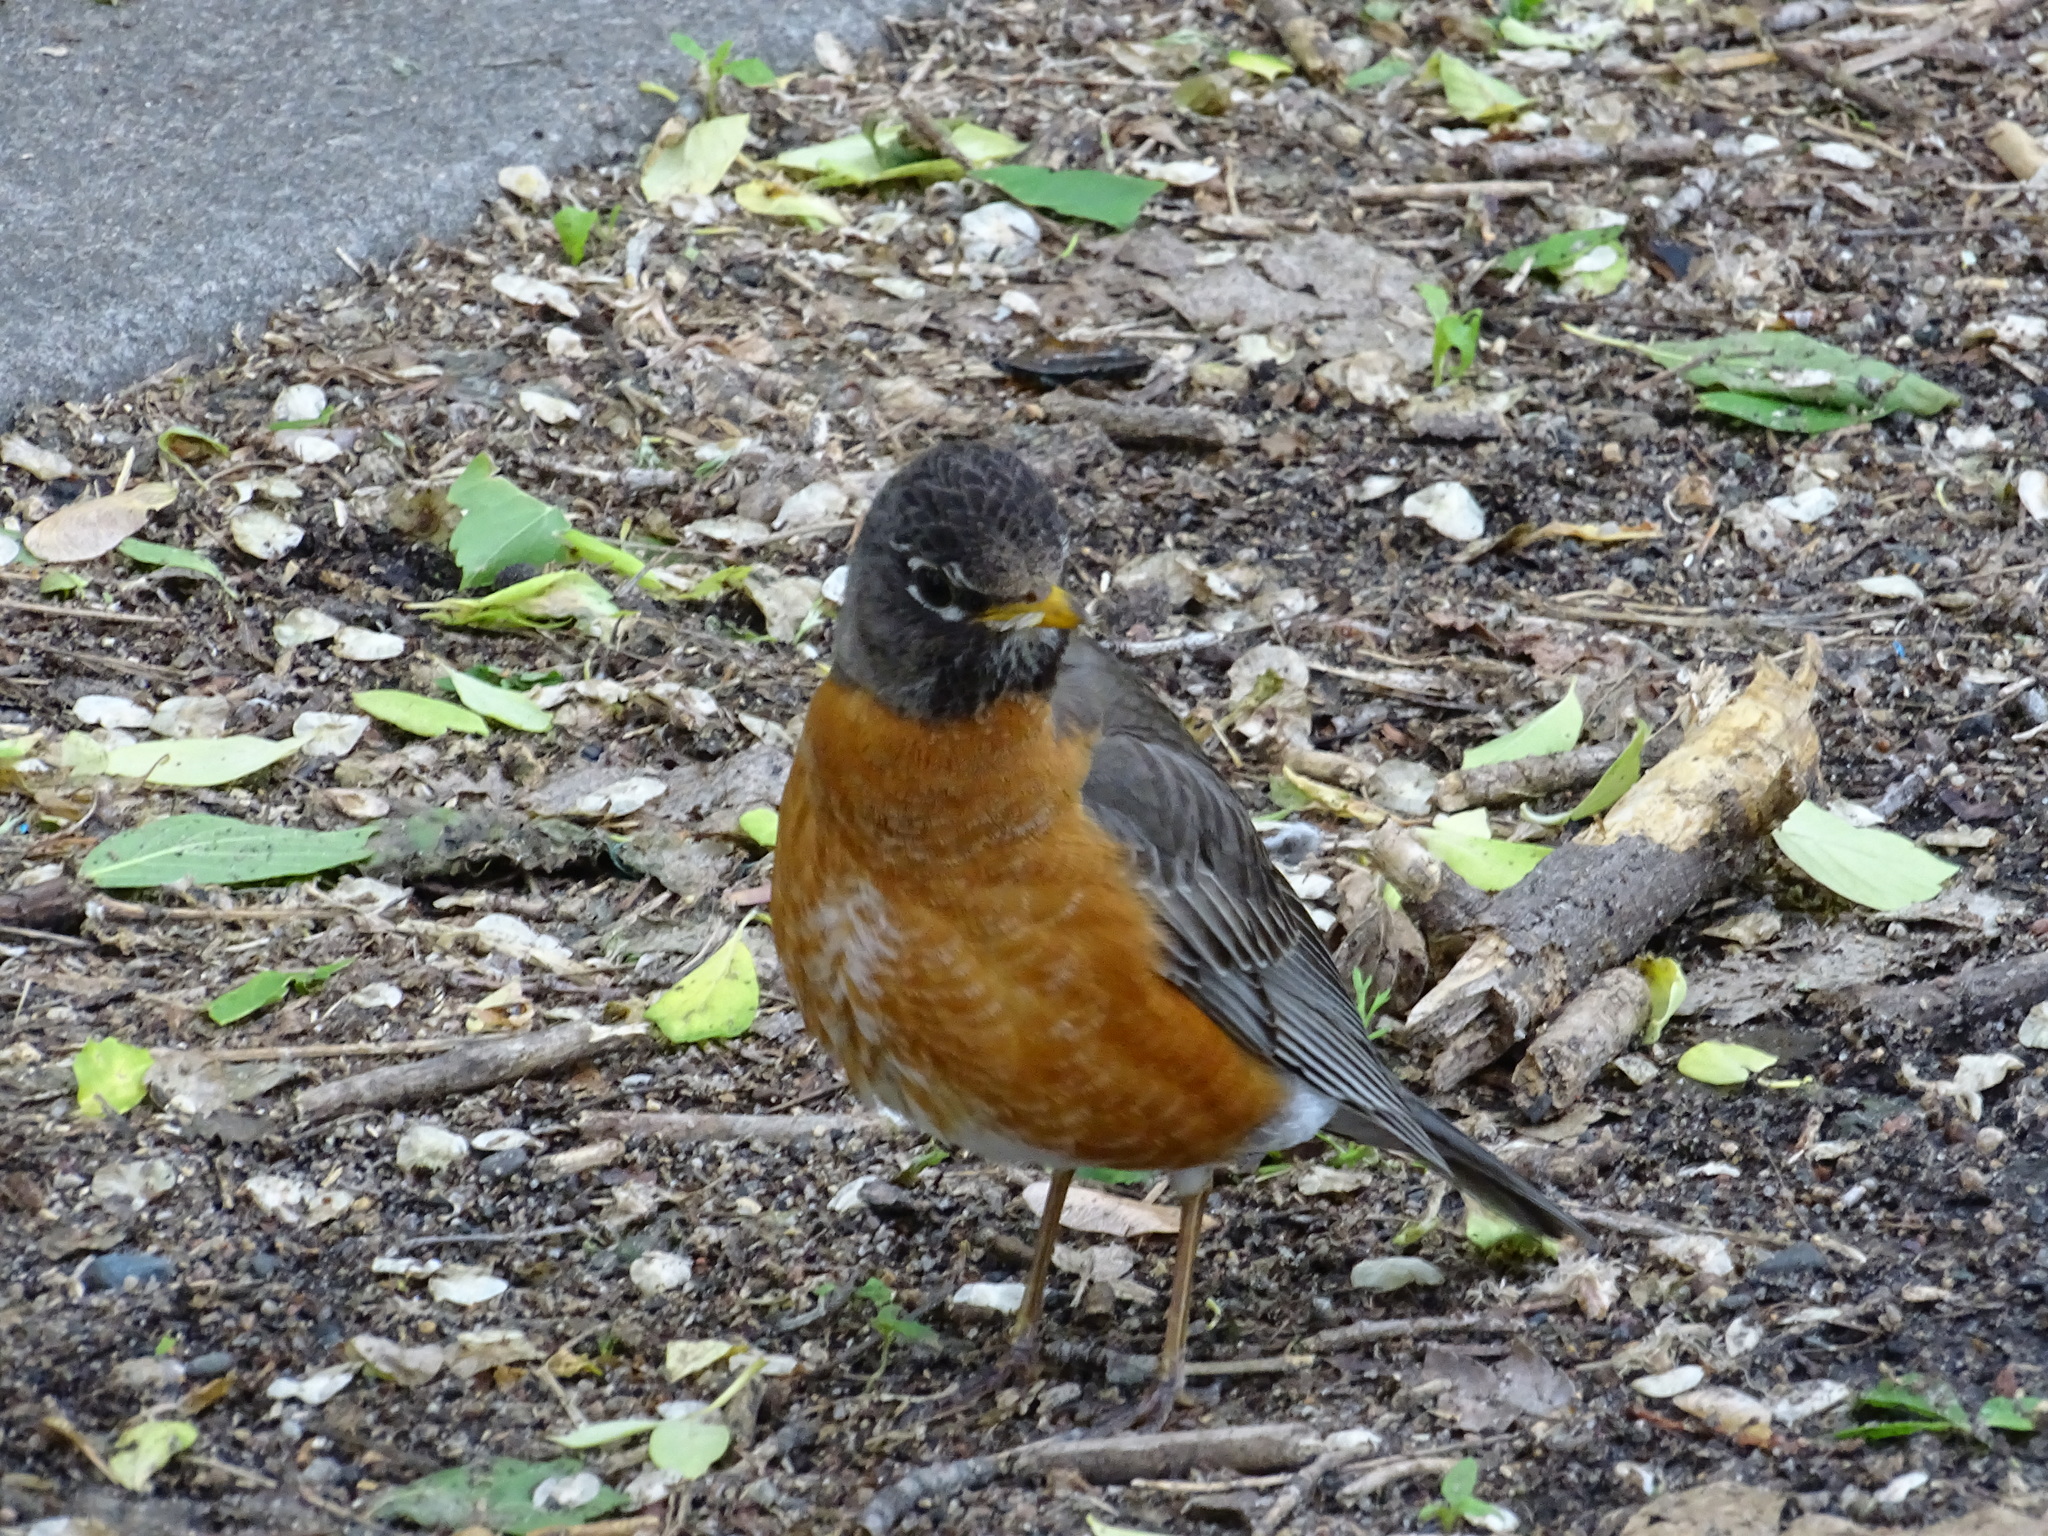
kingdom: Animalia
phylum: Chordata
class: Aves
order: Passeriformes
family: Turdidae
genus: Turdus
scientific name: Turdus migratorius
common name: American robin
